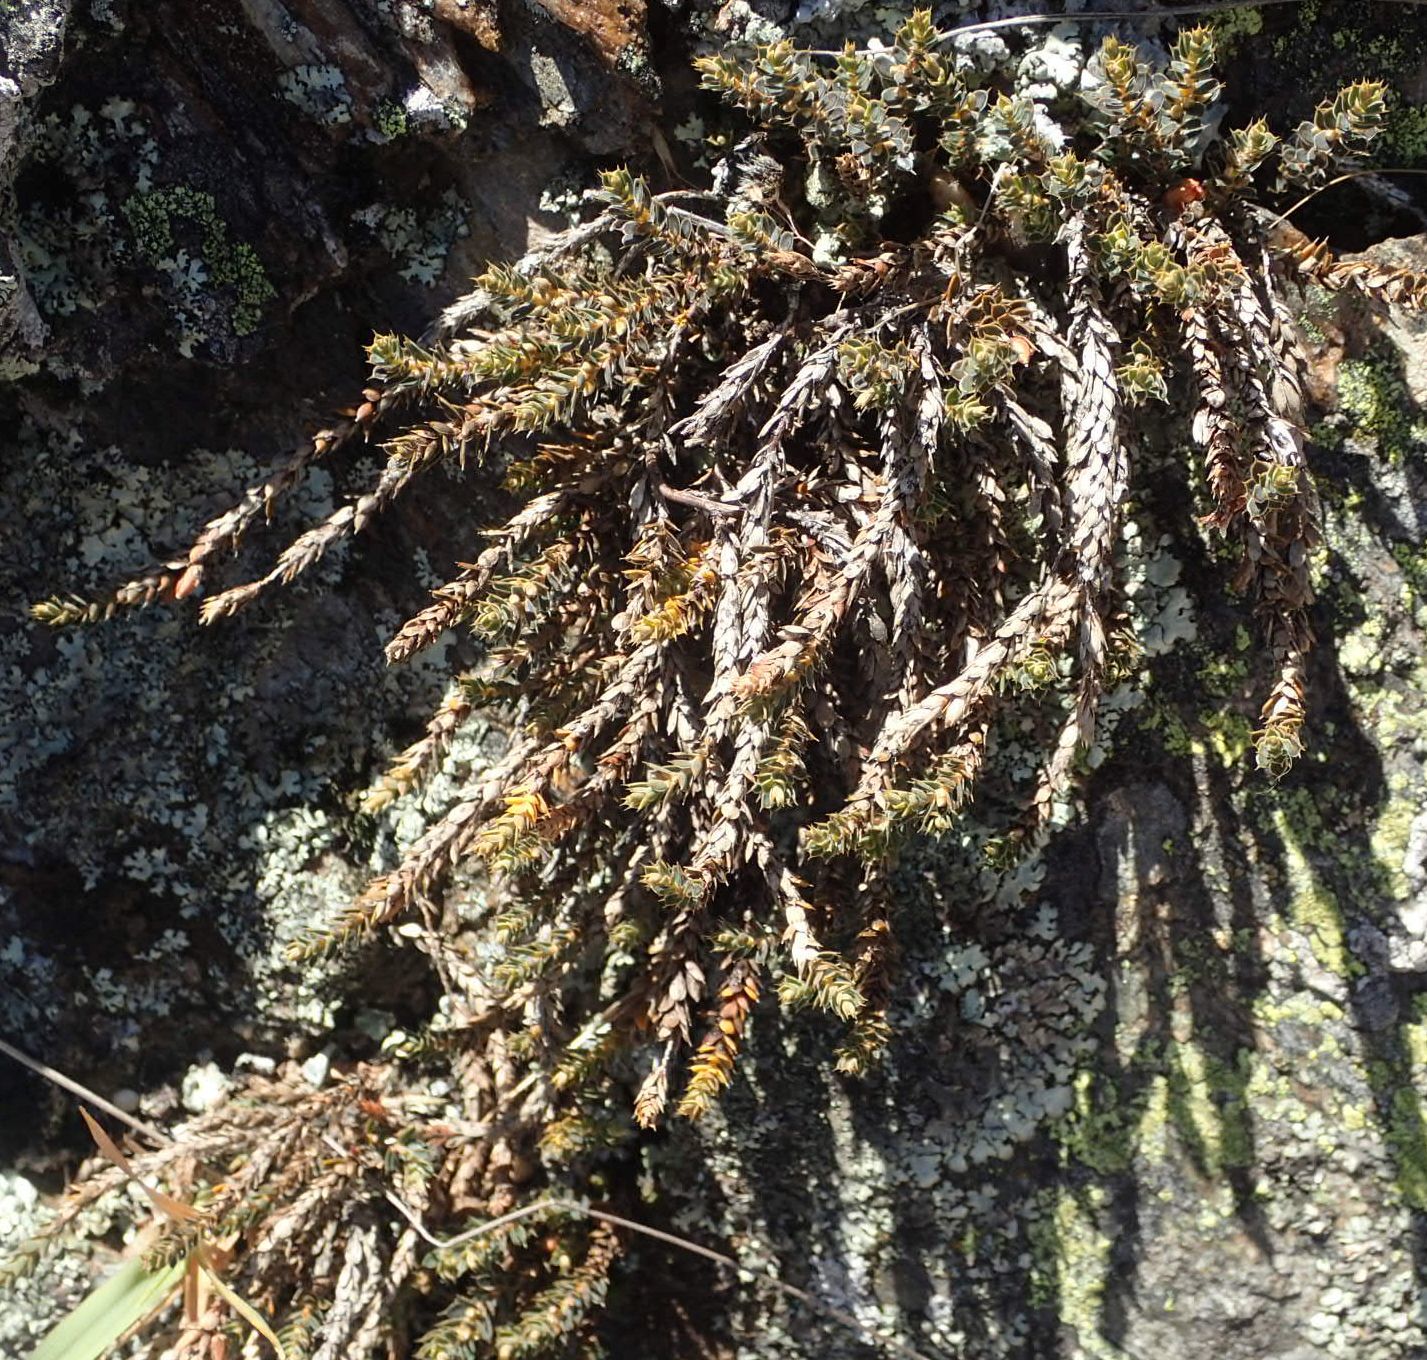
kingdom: Plantae
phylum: Tracheophyta
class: Magnoliopsida
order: Ericales
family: Ericaceae
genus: Styphelia
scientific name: Styphelia nesophila
